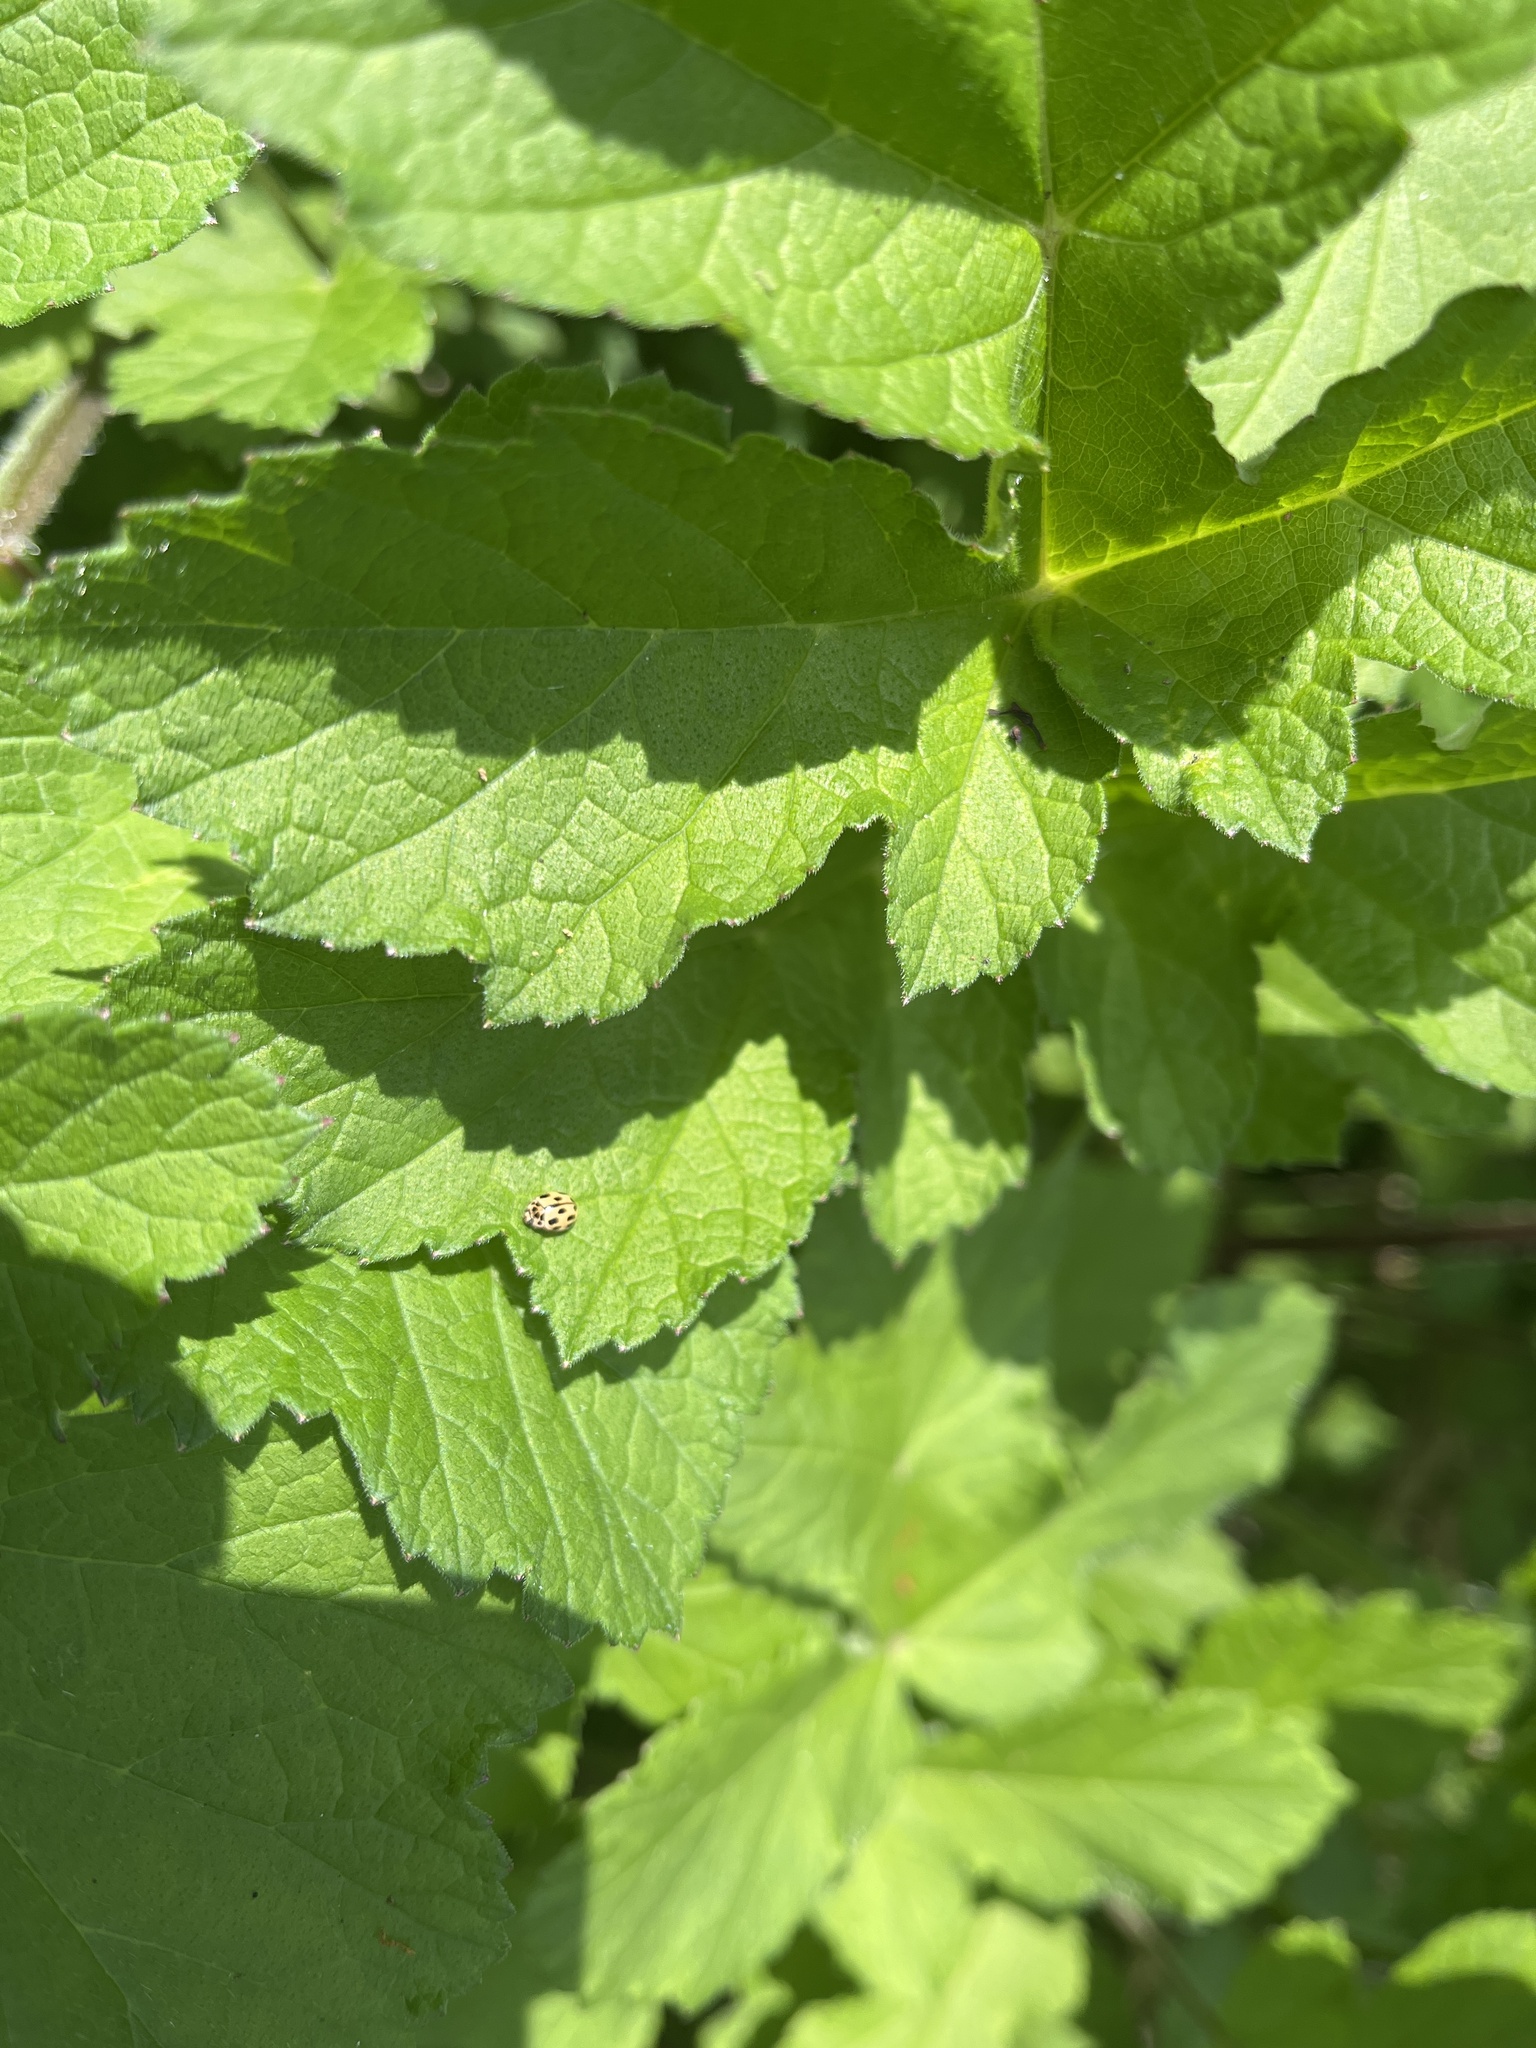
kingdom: Animalia
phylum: Arthropoda
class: Insecta
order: Coleoptera
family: Coccinellidae
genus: Propylaea
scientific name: Propylaea quatuordecimpunctata
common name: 14-spotted ladybird beetle
